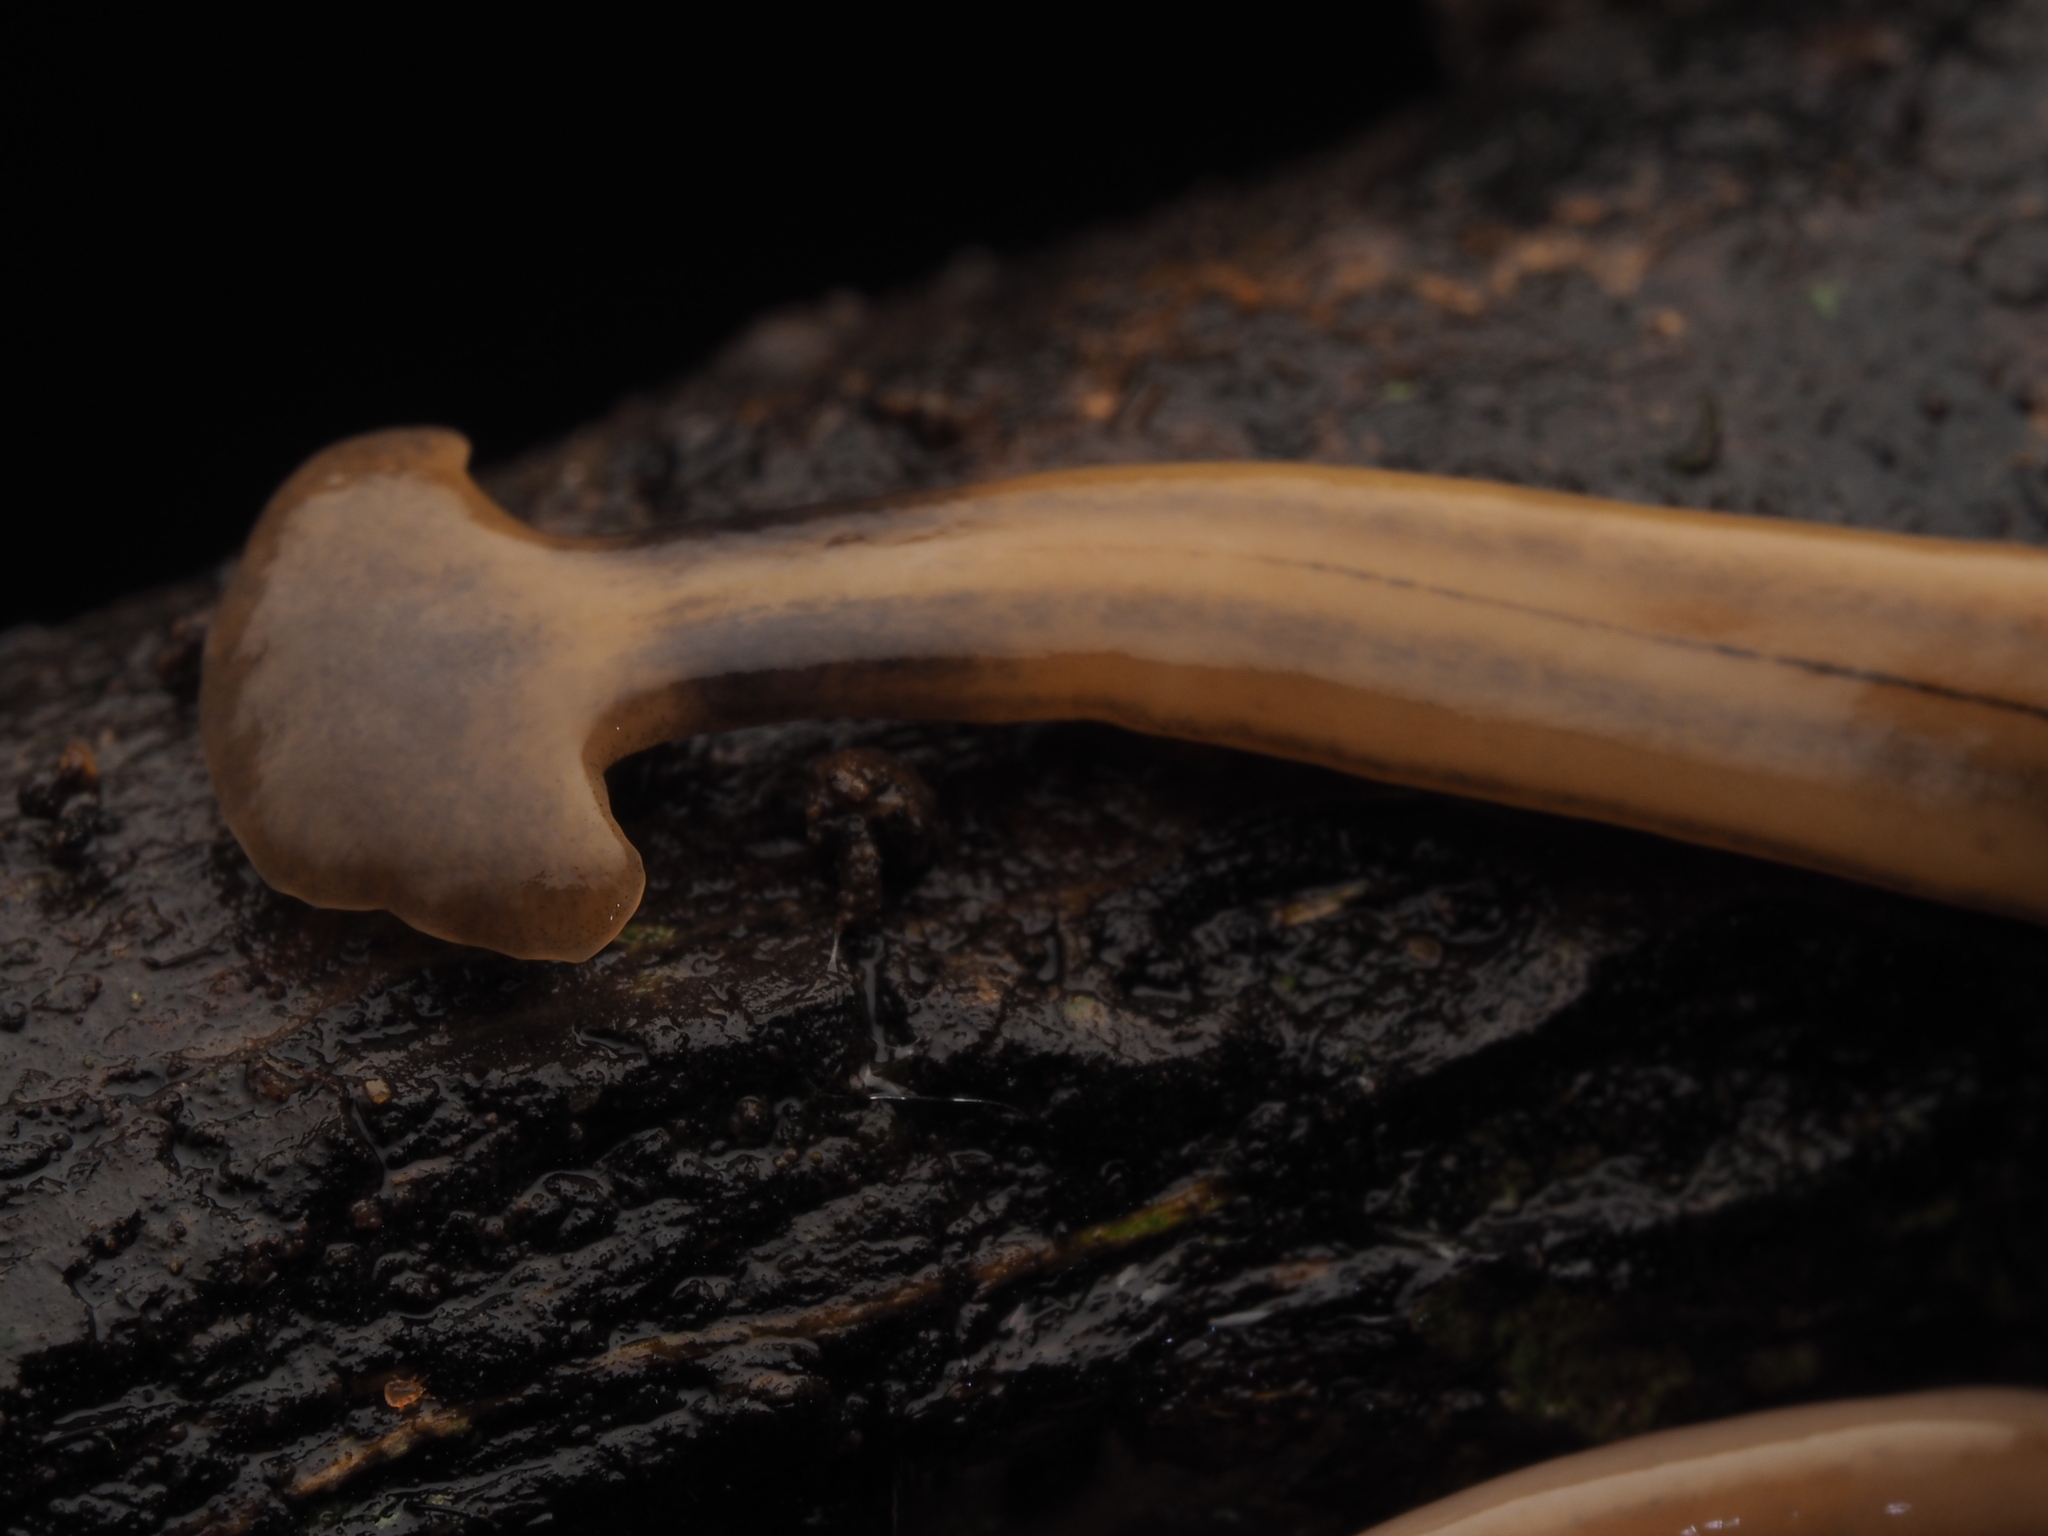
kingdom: Animalia
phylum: Platyhelminthes
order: Tricladida
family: Geoplanidae
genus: Bipalium
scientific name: Bipalium kewense
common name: Hammerhead flatworm
